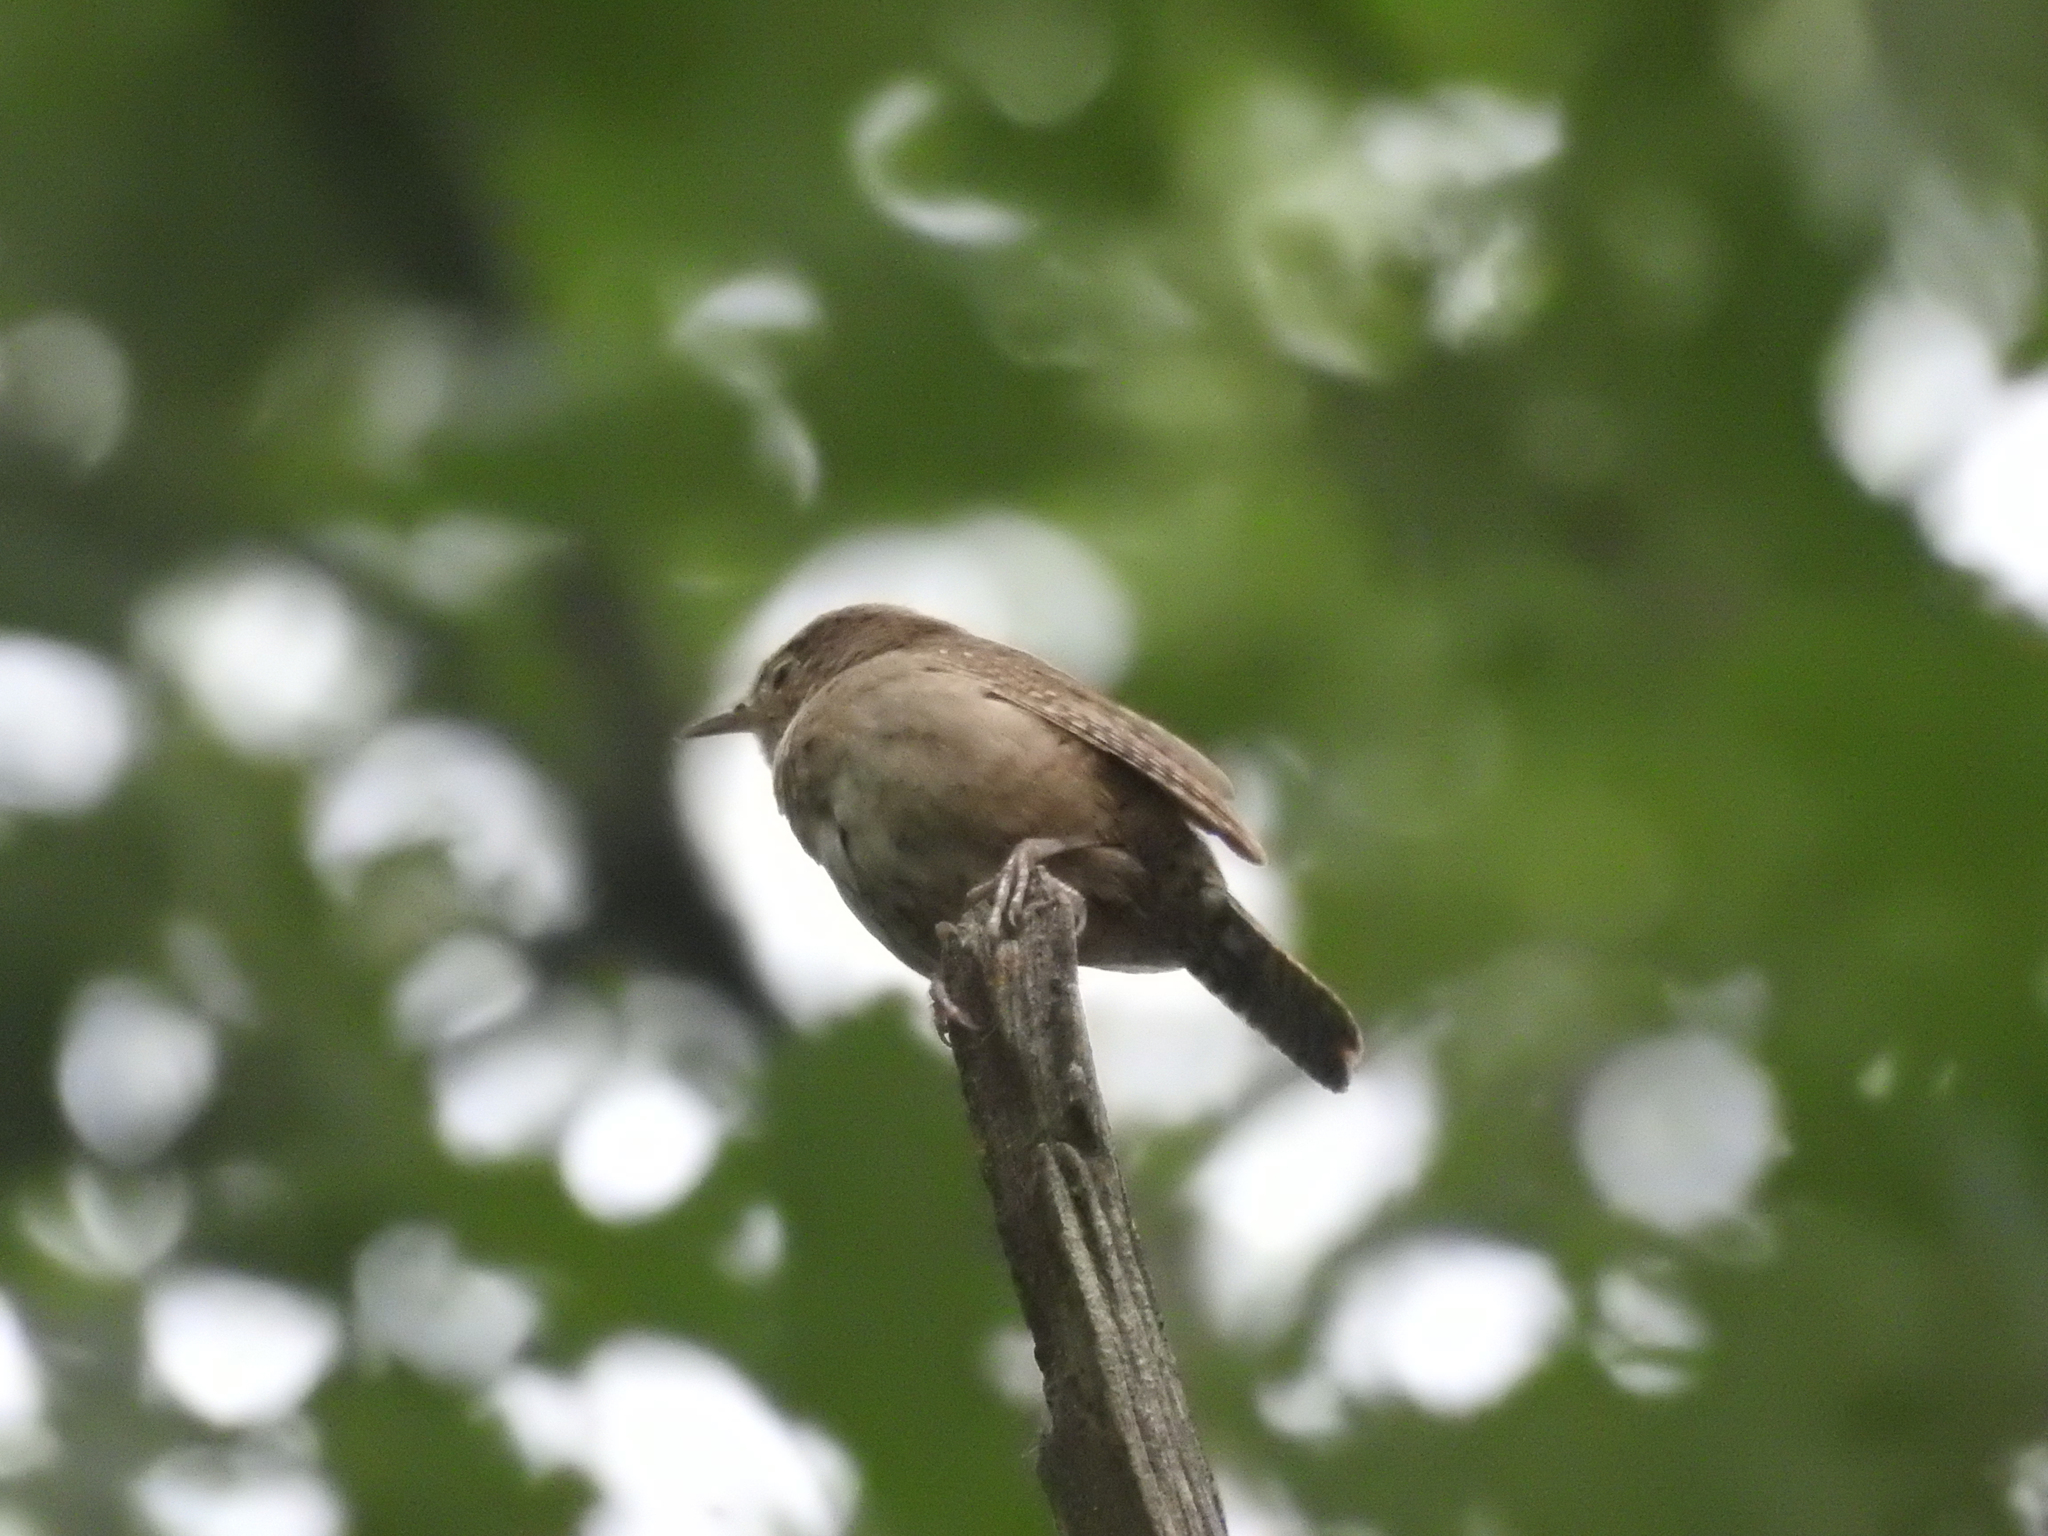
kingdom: Animalia
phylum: Chordata
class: Aves
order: Passeriformes
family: Troglodytidae
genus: Troglodytes
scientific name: Troglodytes aedon
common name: House wren
